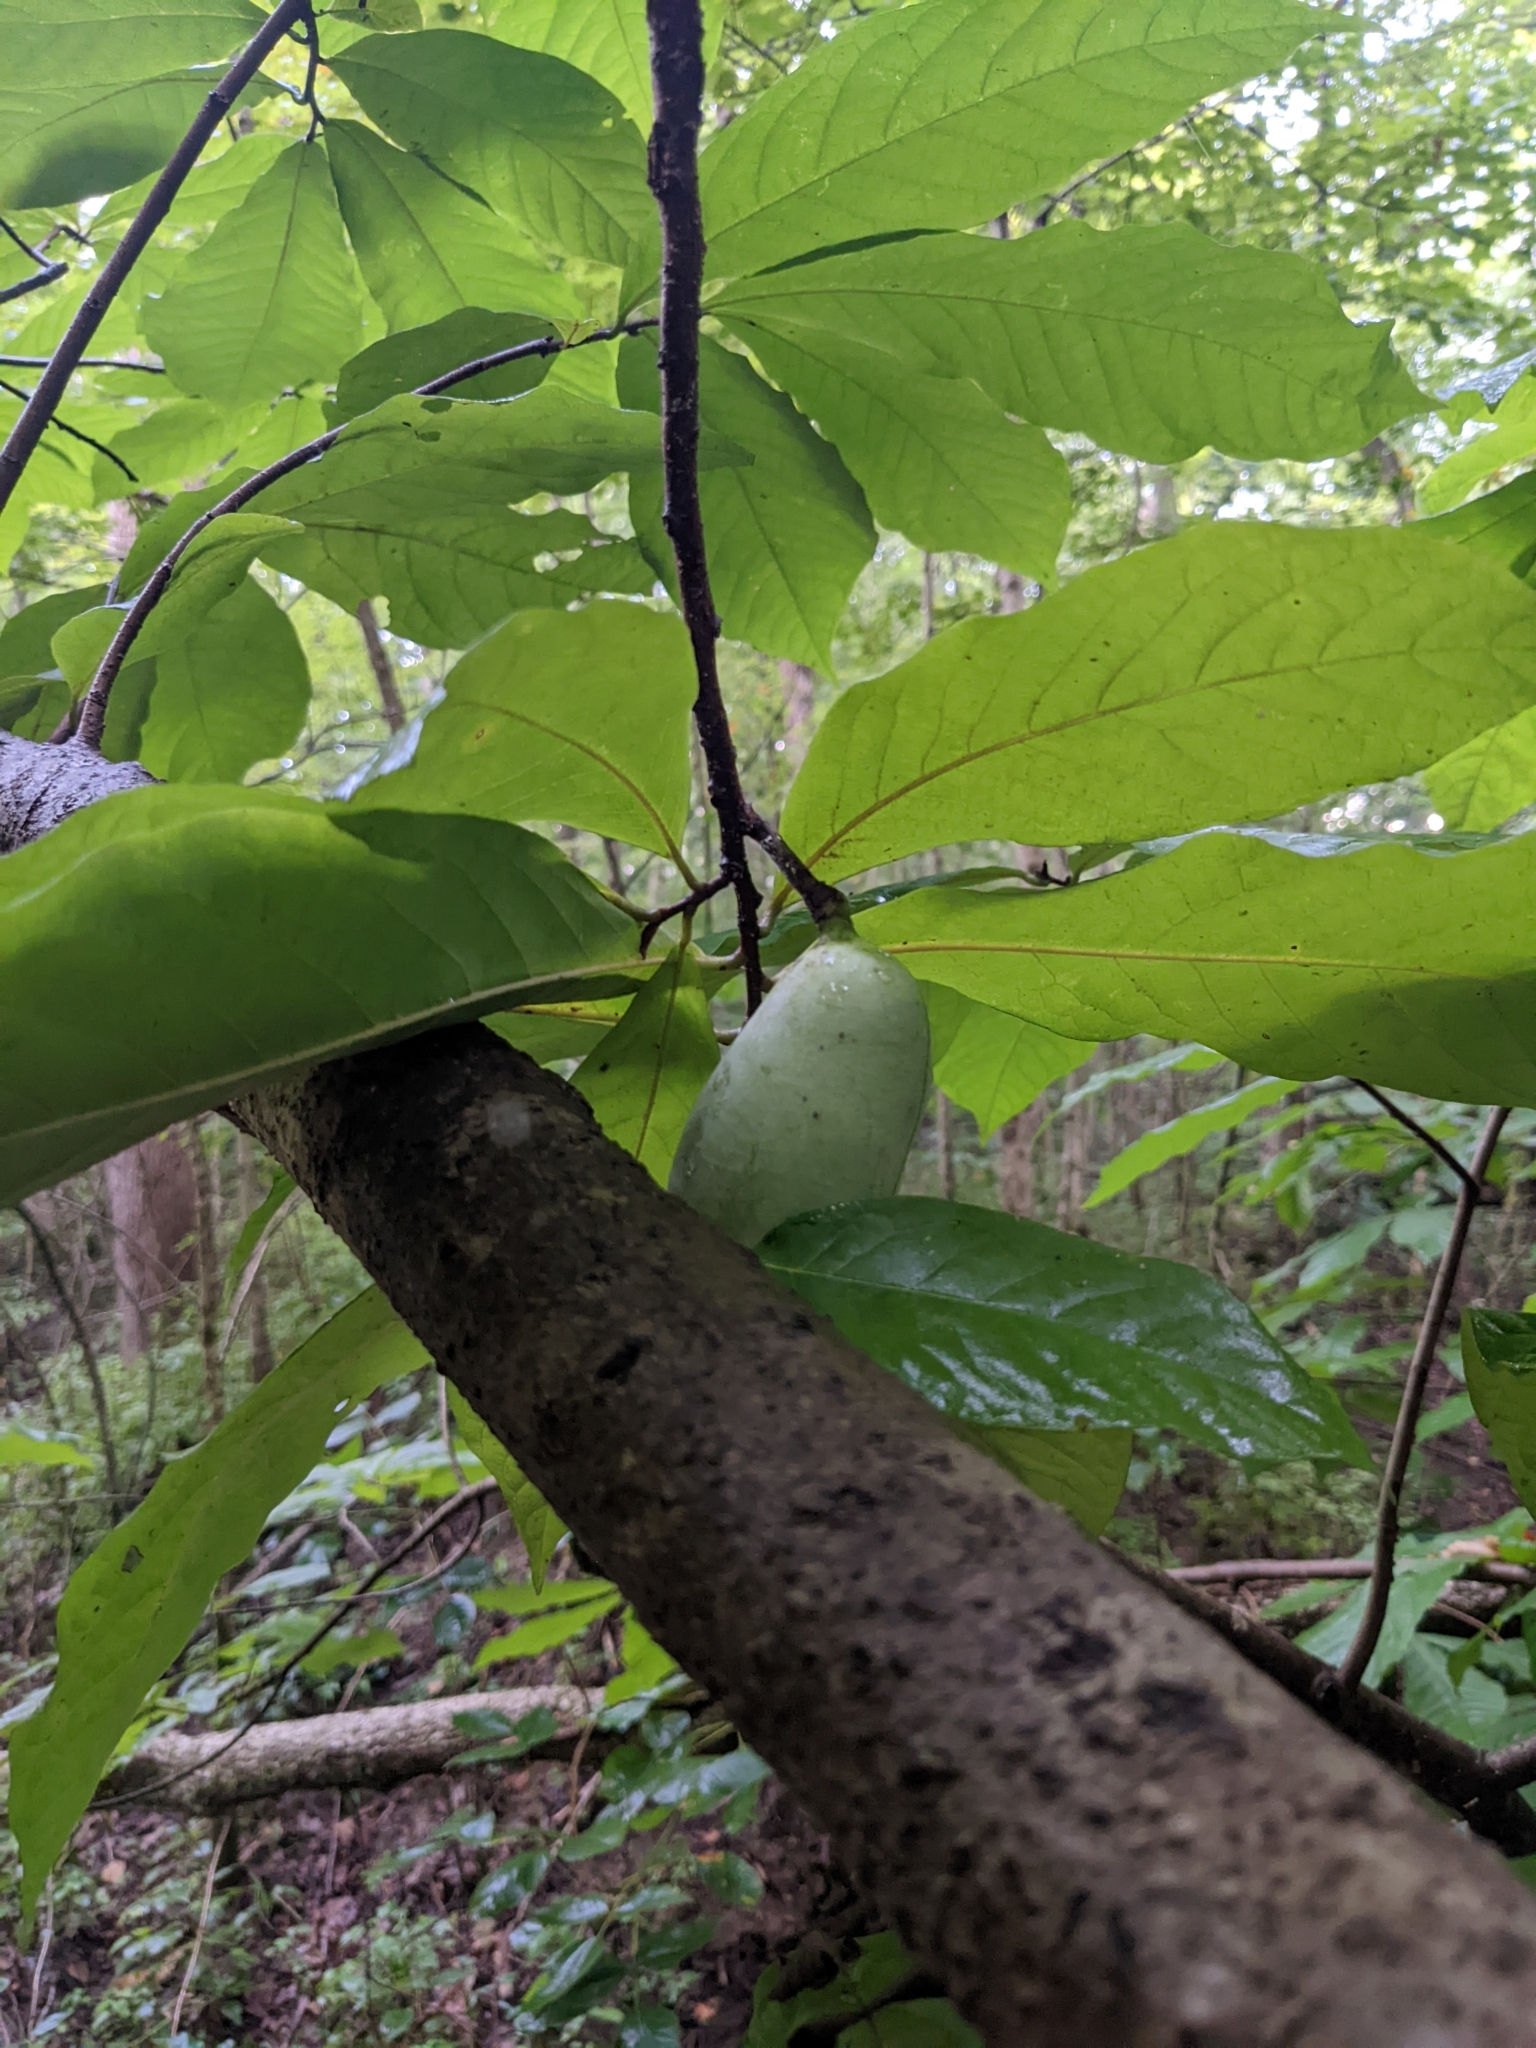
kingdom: Plantae
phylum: Tracheophyta
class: Magnoliopsida
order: Magnoliales
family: Annonaceae
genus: Asimina
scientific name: Asimina triloba
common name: Dog-banana
